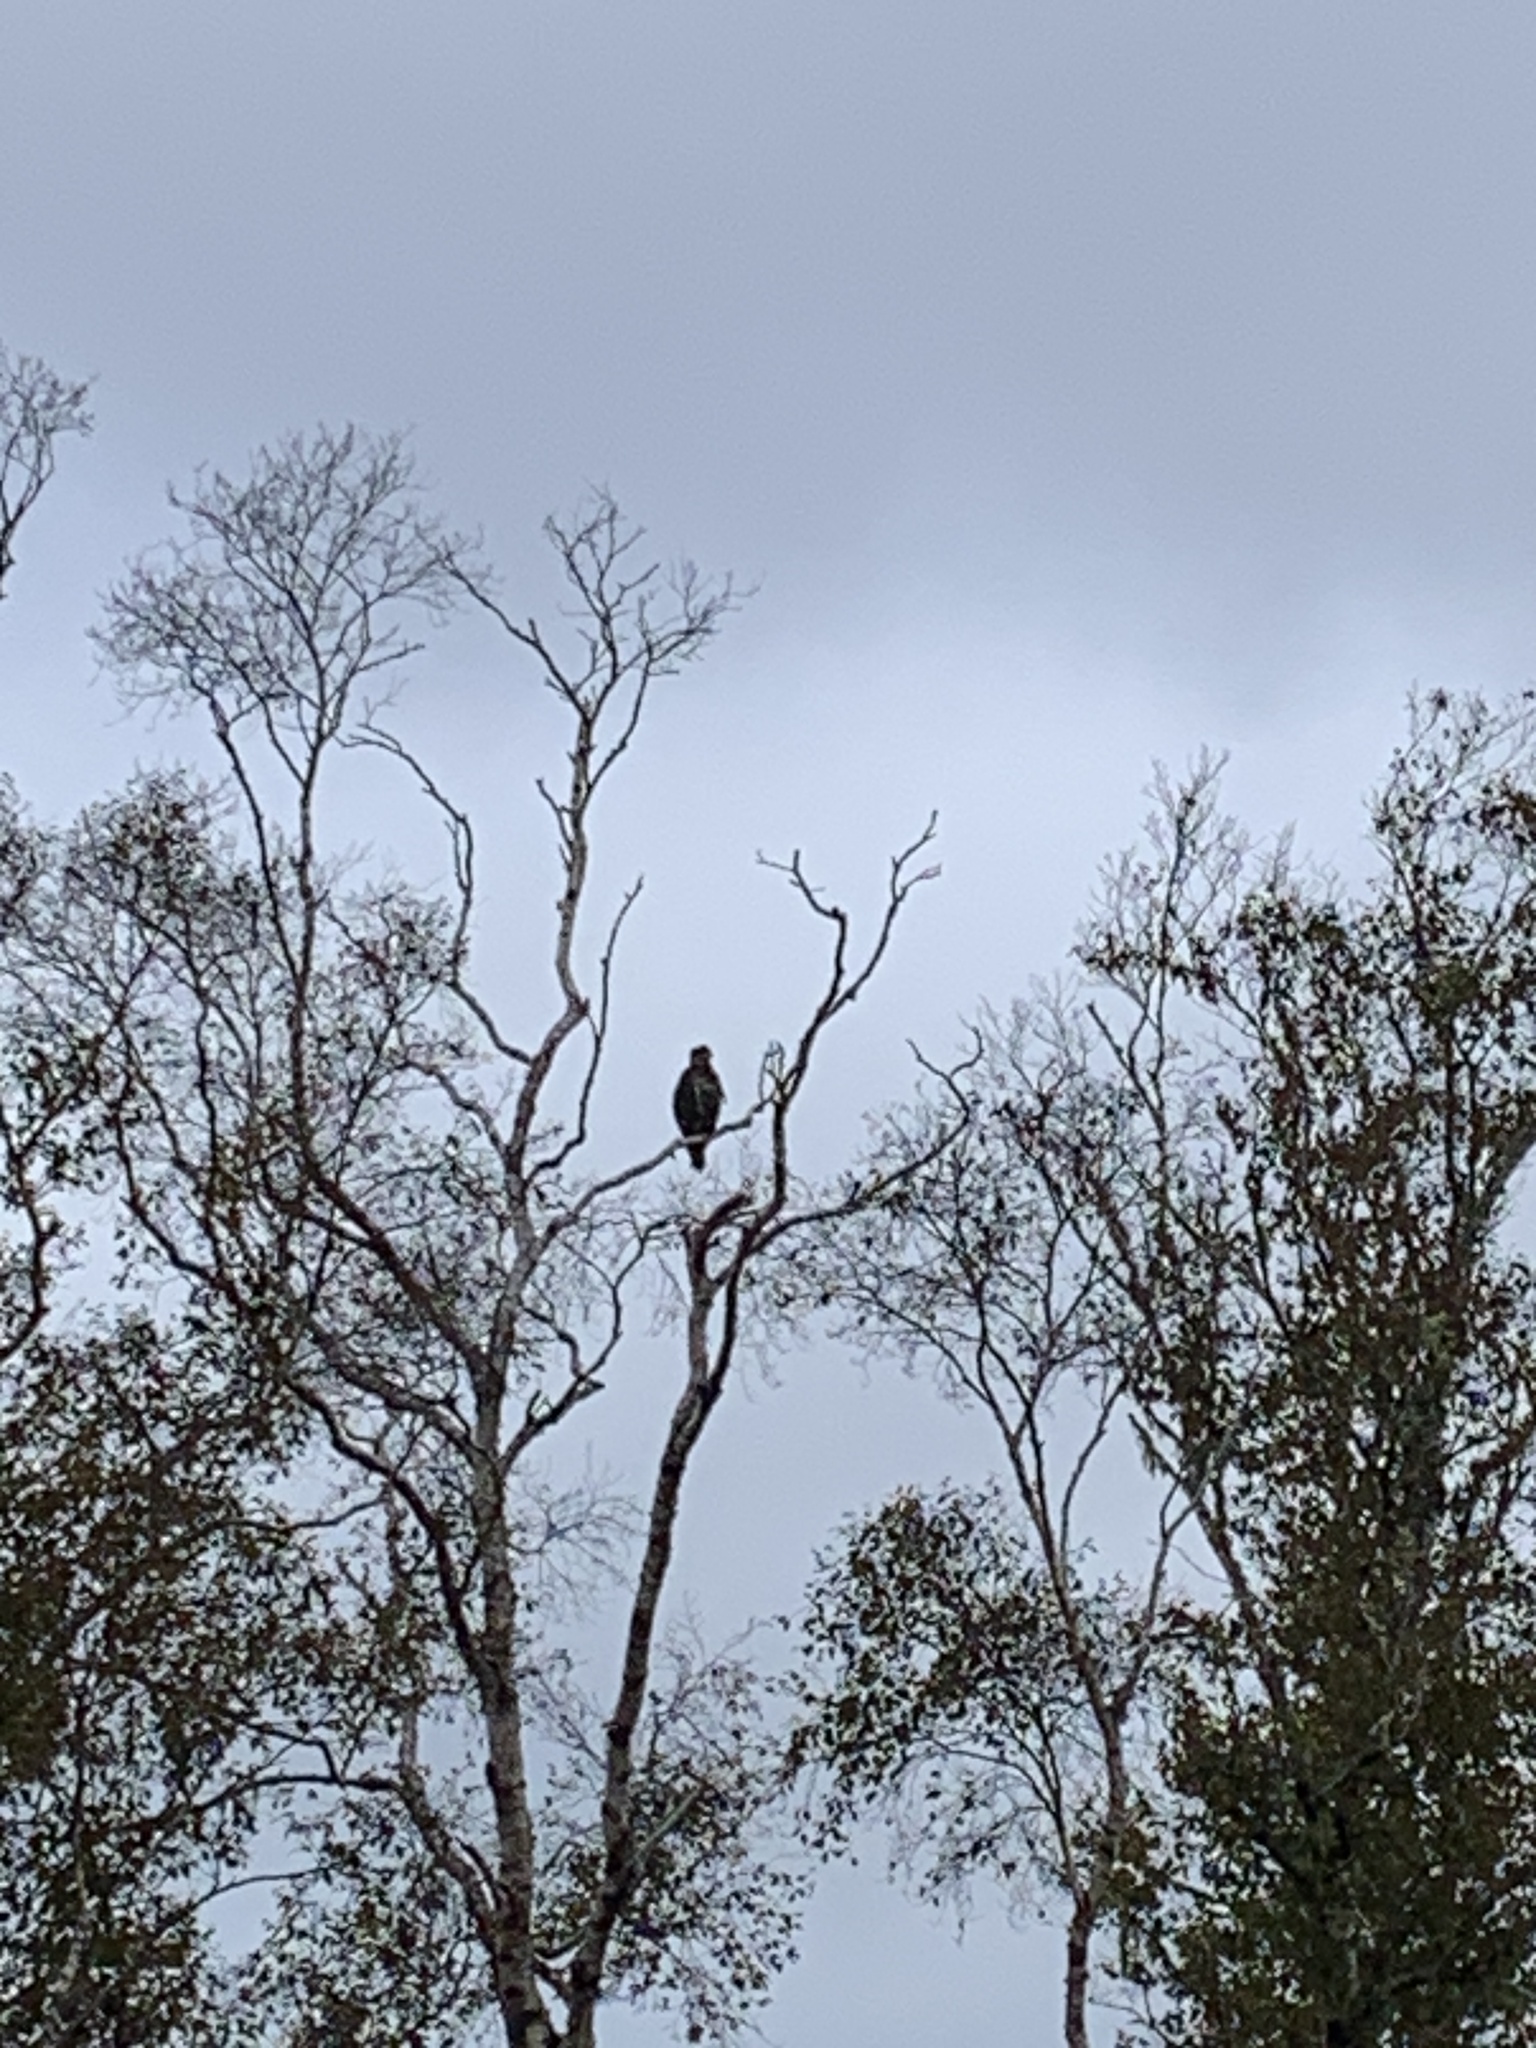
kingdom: Animalia
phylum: Chordata
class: Aves
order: Accipitriformes
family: Accipitridae
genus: Haliaeetus
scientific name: Haliaeetus leucocephalus
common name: Bald eagle
